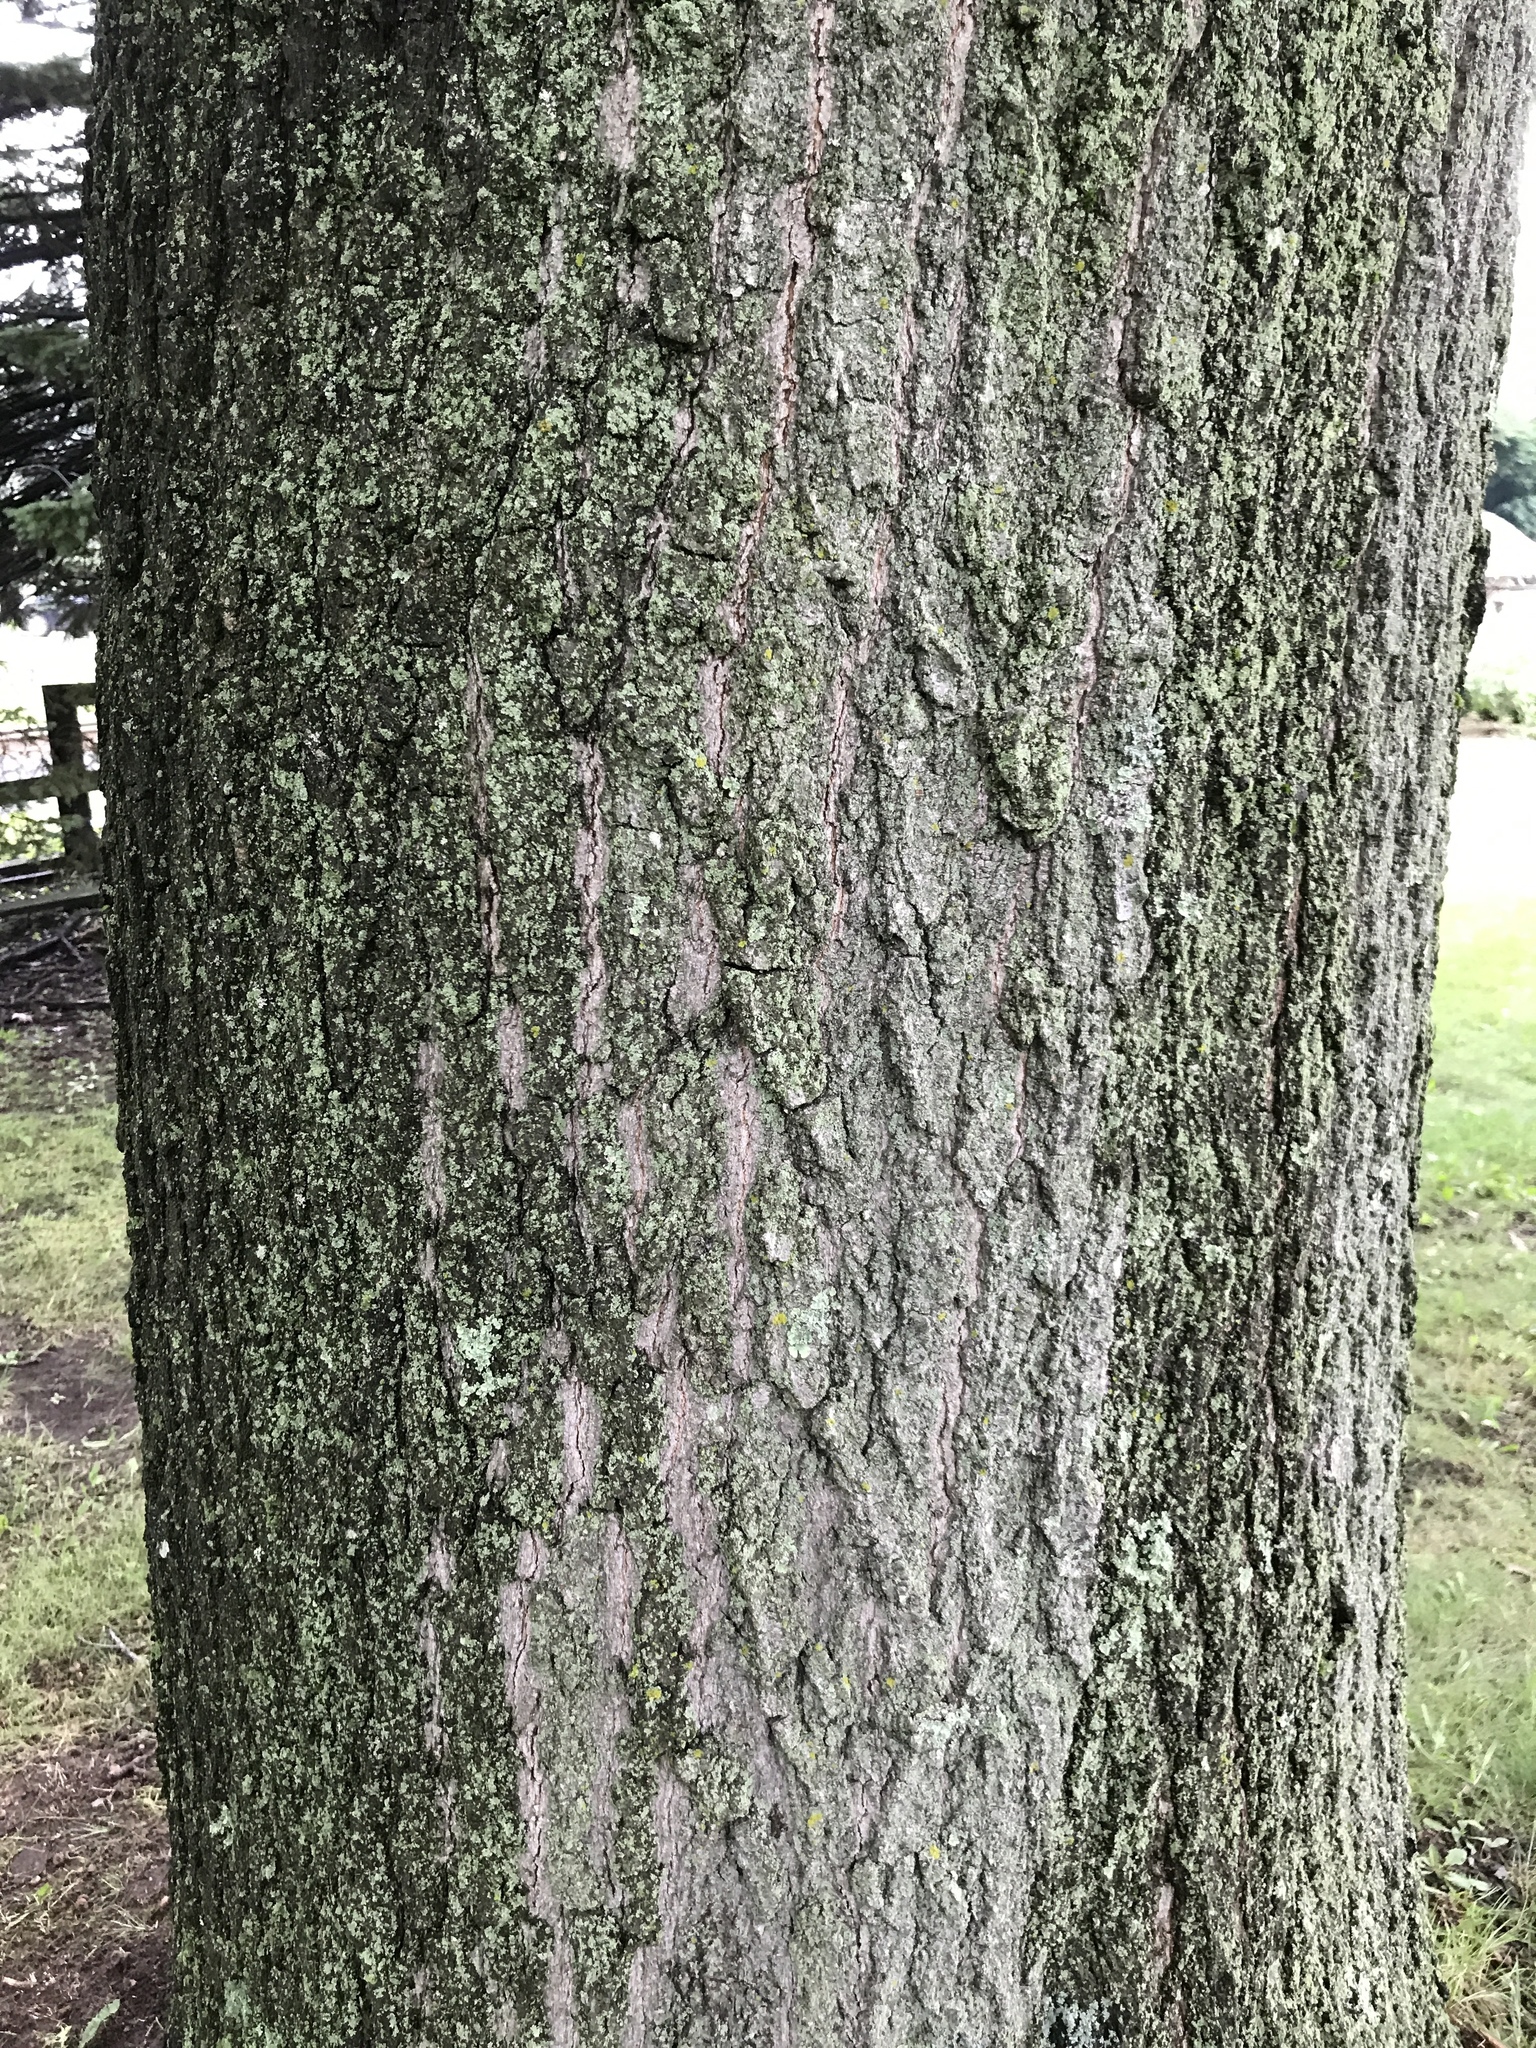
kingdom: Plantae
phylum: Tracheophyta
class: Magnoliopsida
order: Fagales
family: Fagaceae
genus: Quercus
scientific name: Quercus rubra
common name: Red oak
